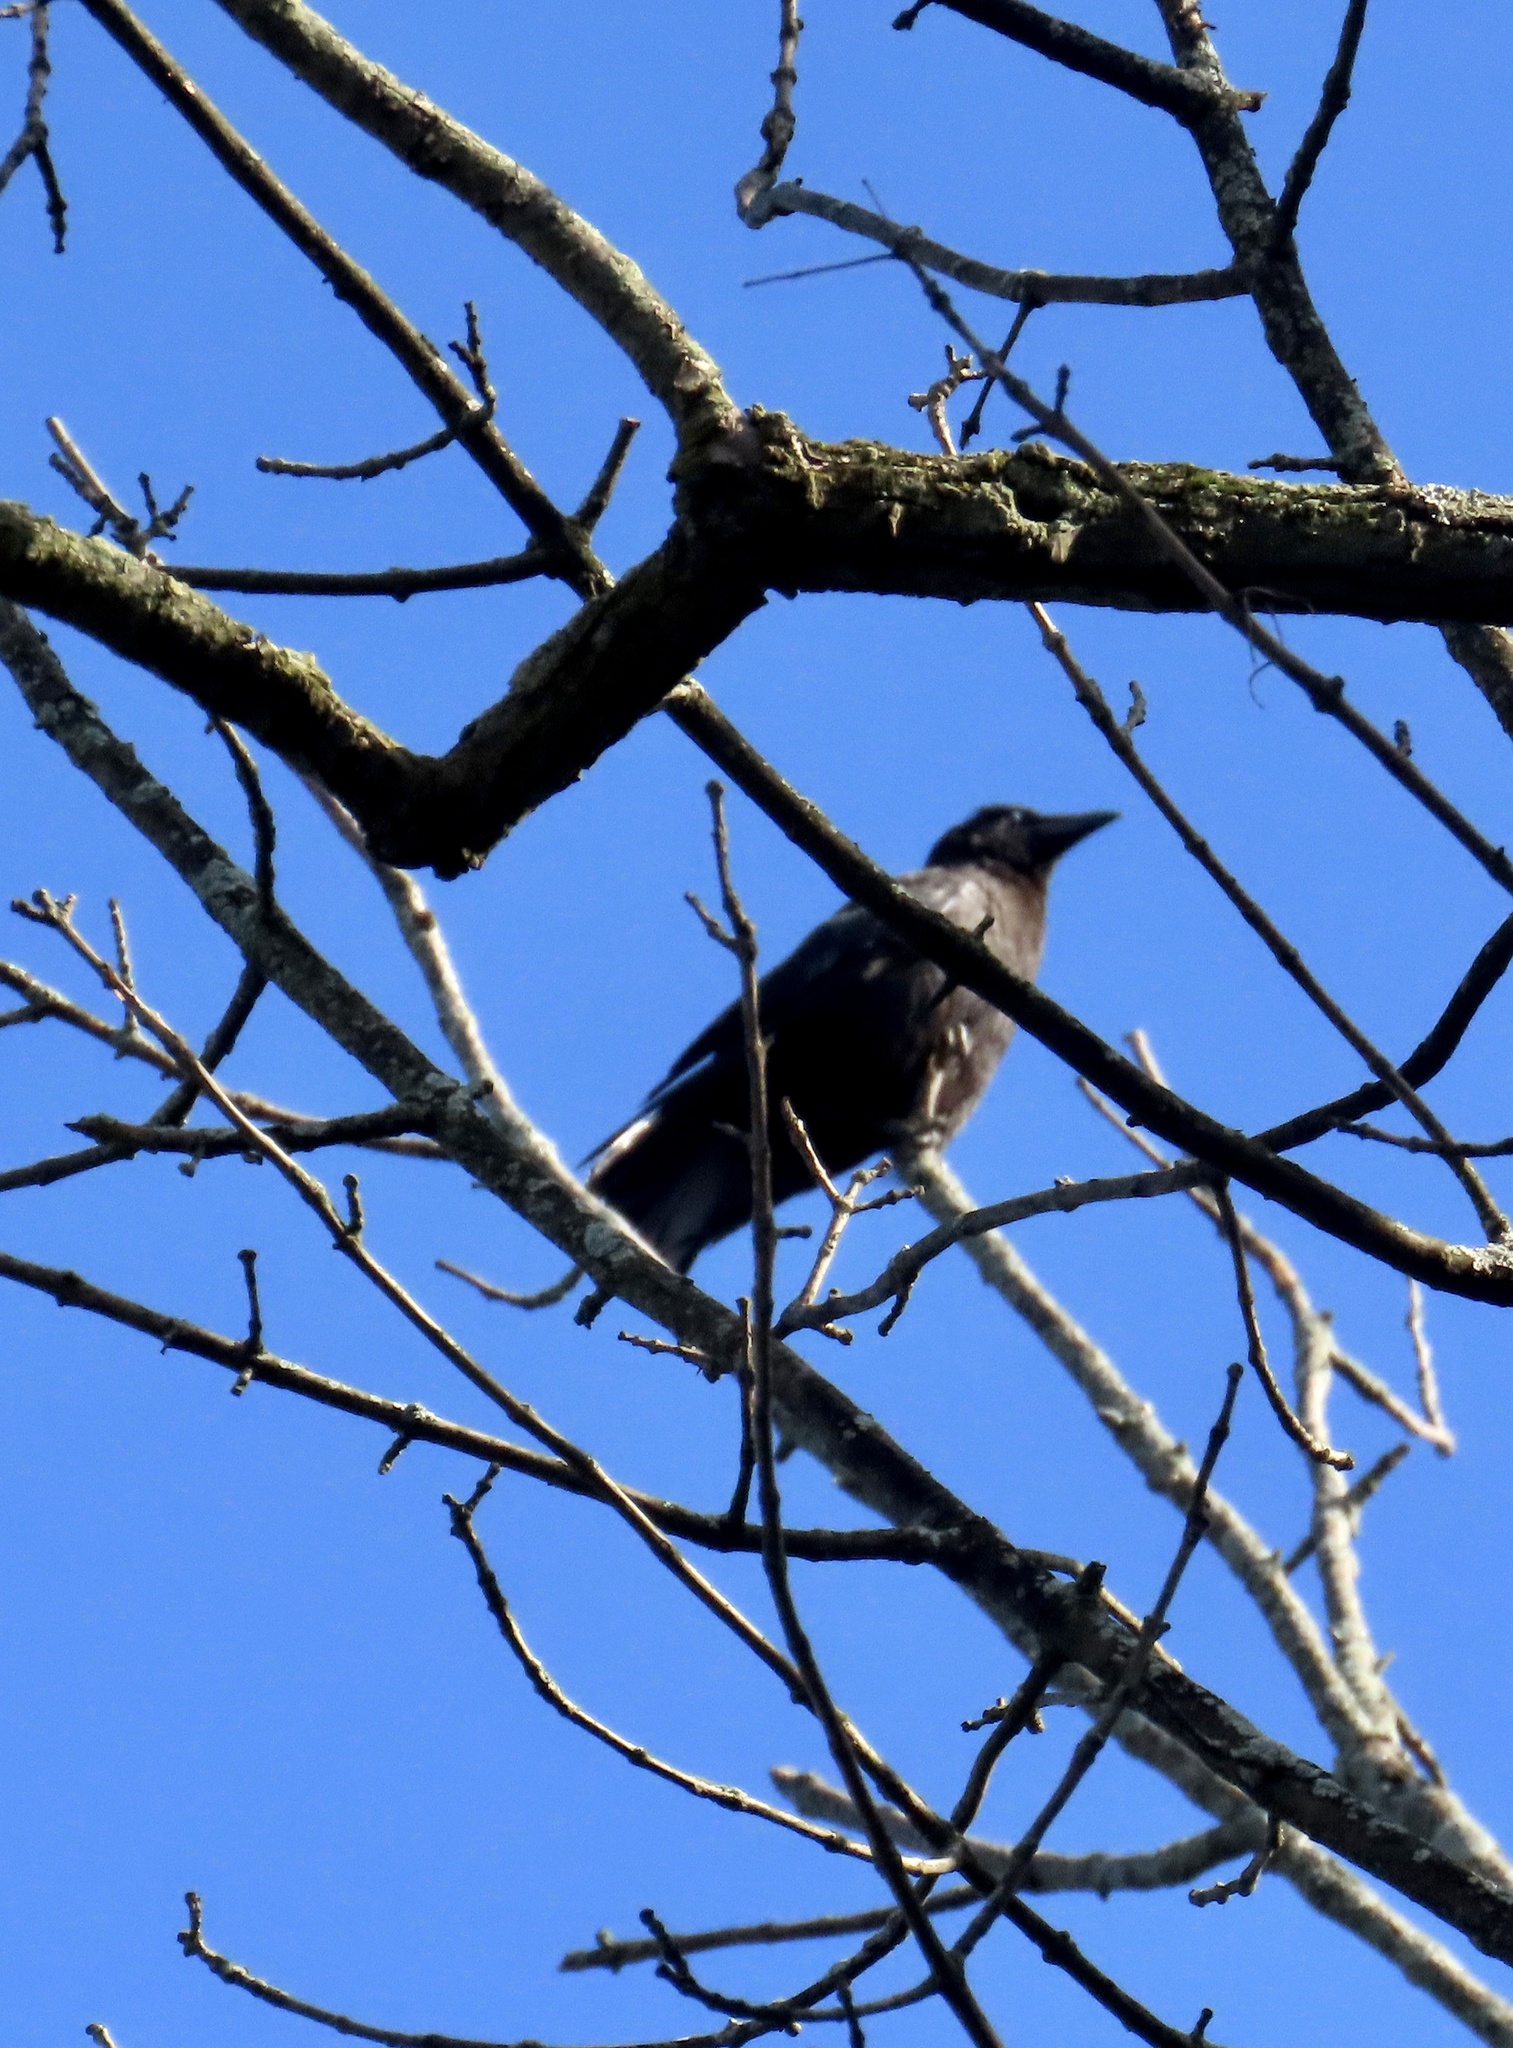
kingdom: Animalia
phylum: Chordata
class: Aves
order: Passeriformes
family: Corvidae
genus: Corvus
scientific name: Corvus brachyrhynchos
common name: American crow
